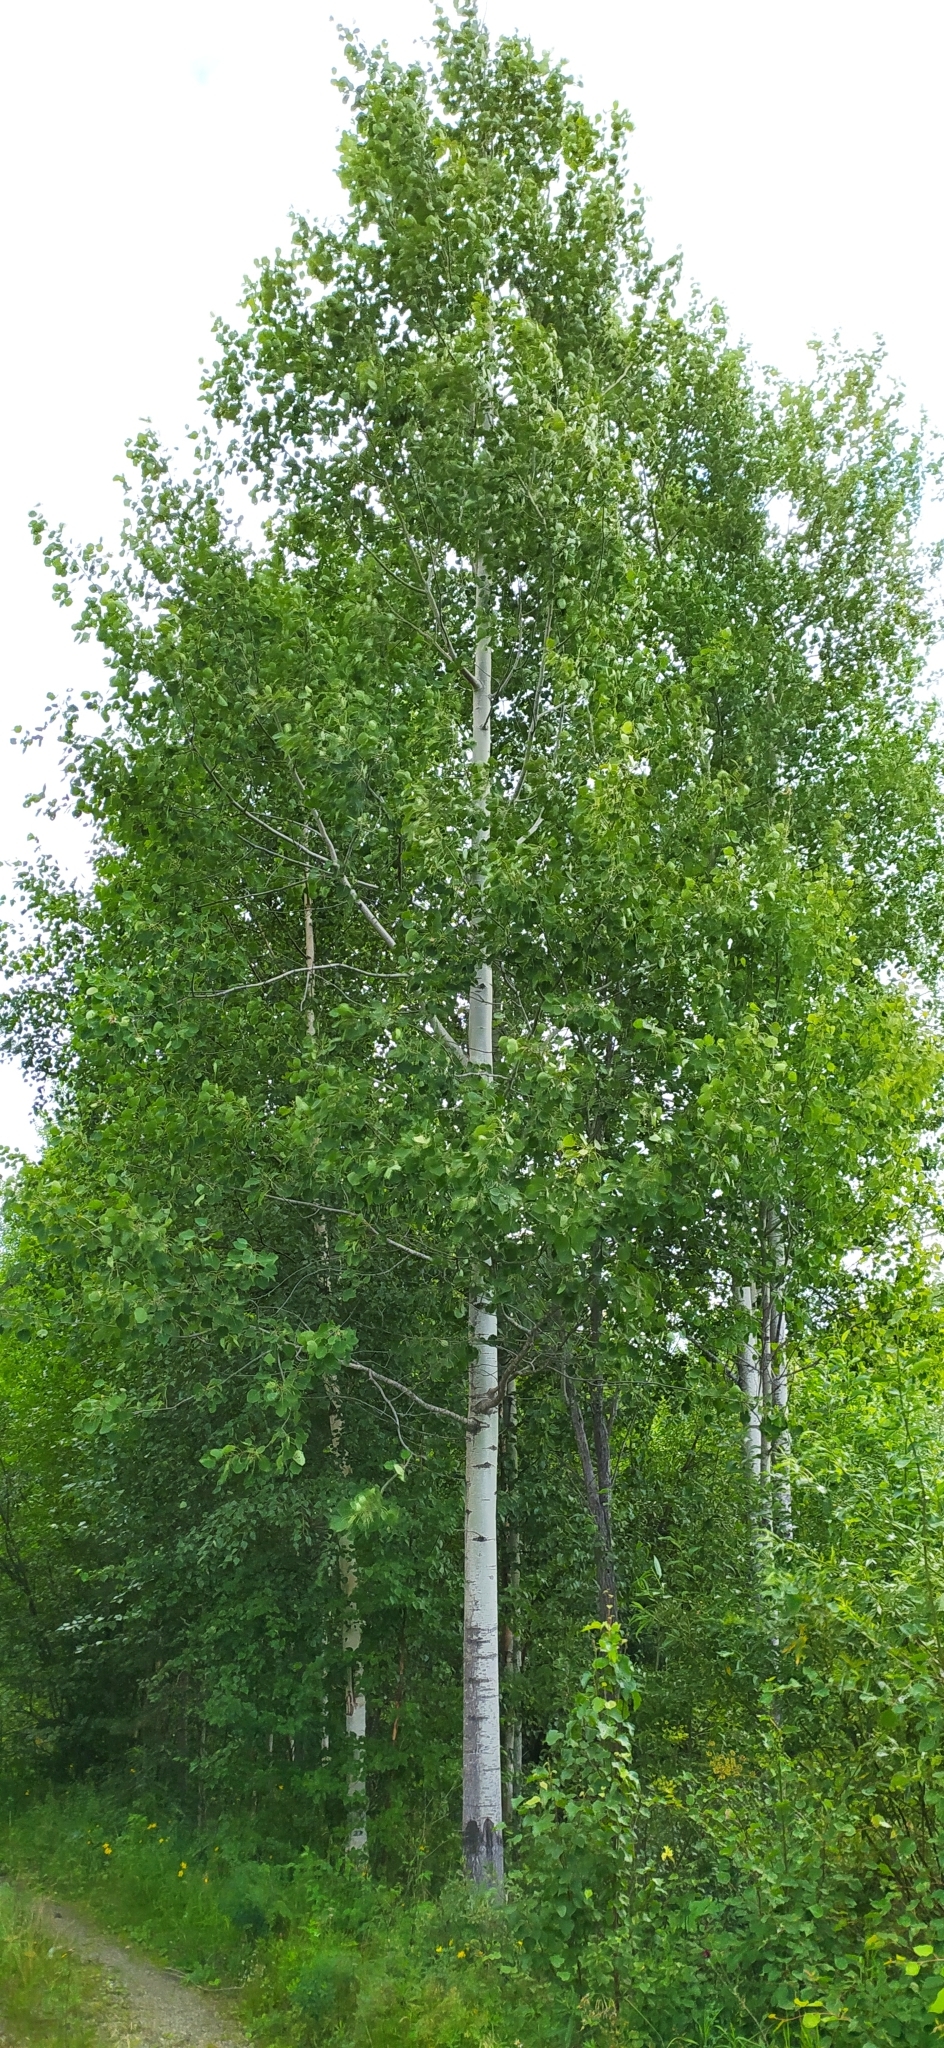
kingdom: Plantae
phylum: Tracheophyta
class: Magnoliopsida
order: Malpighiales
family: Salicaceae
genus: Populus
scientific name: Populus tremula
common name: European aspen
